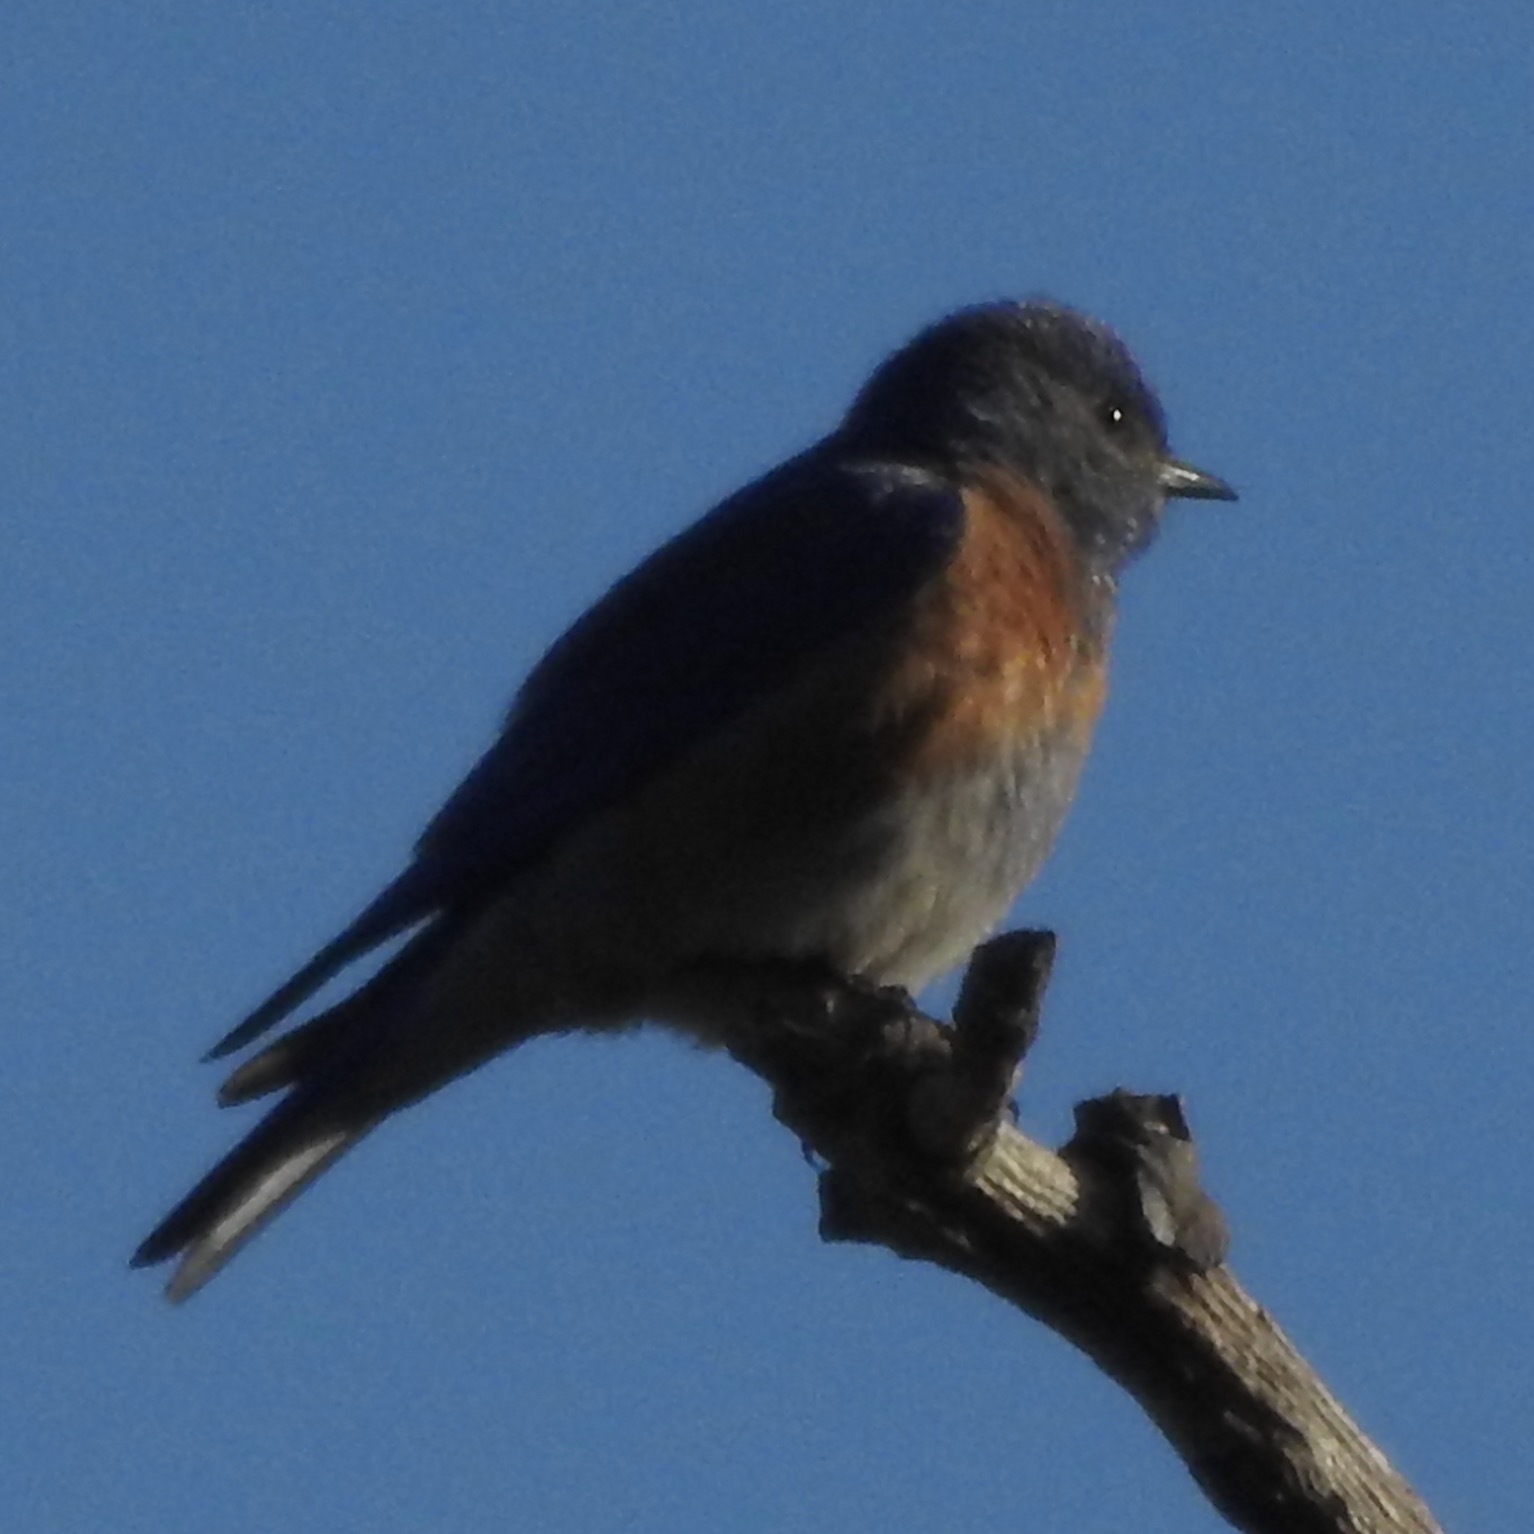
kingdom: Animalia
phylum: Chordata
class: Aves
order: Passeriformes
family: Turdidae
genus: Sialia
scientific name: Sialia mexicana
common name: Western bluebird
